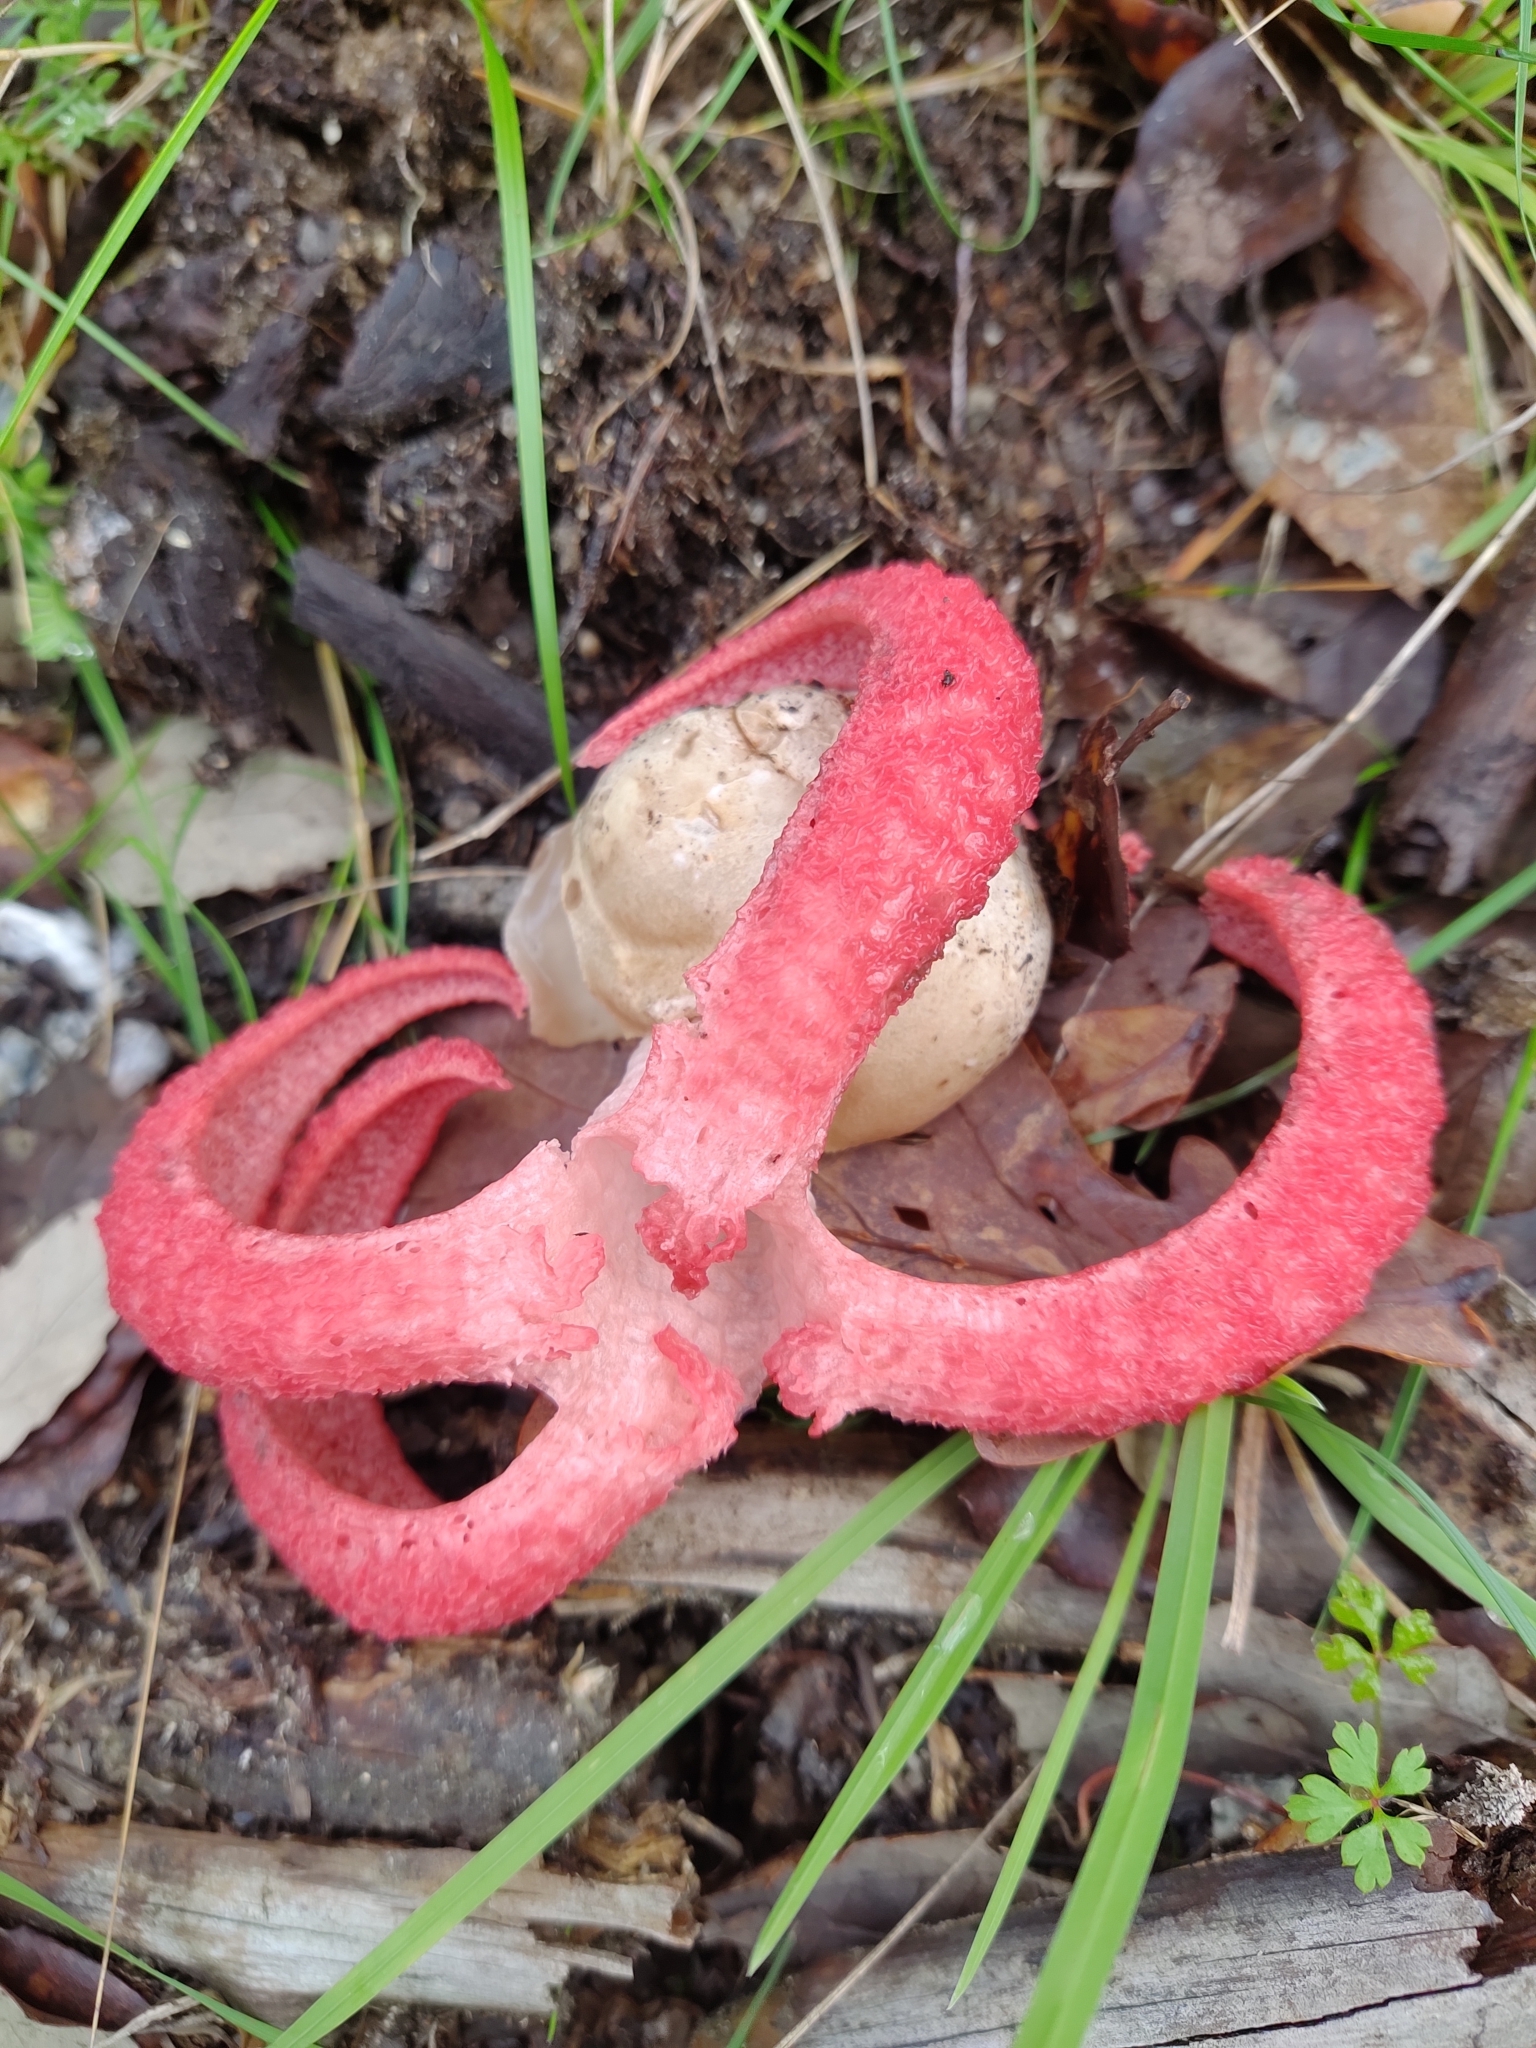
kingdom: Fungi
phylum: Basidiomycota
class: Agaricomycetes
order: Phallales
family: Phallaceae
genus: Clathrus
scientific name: Clathrus archeri
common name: Devil's fingers
